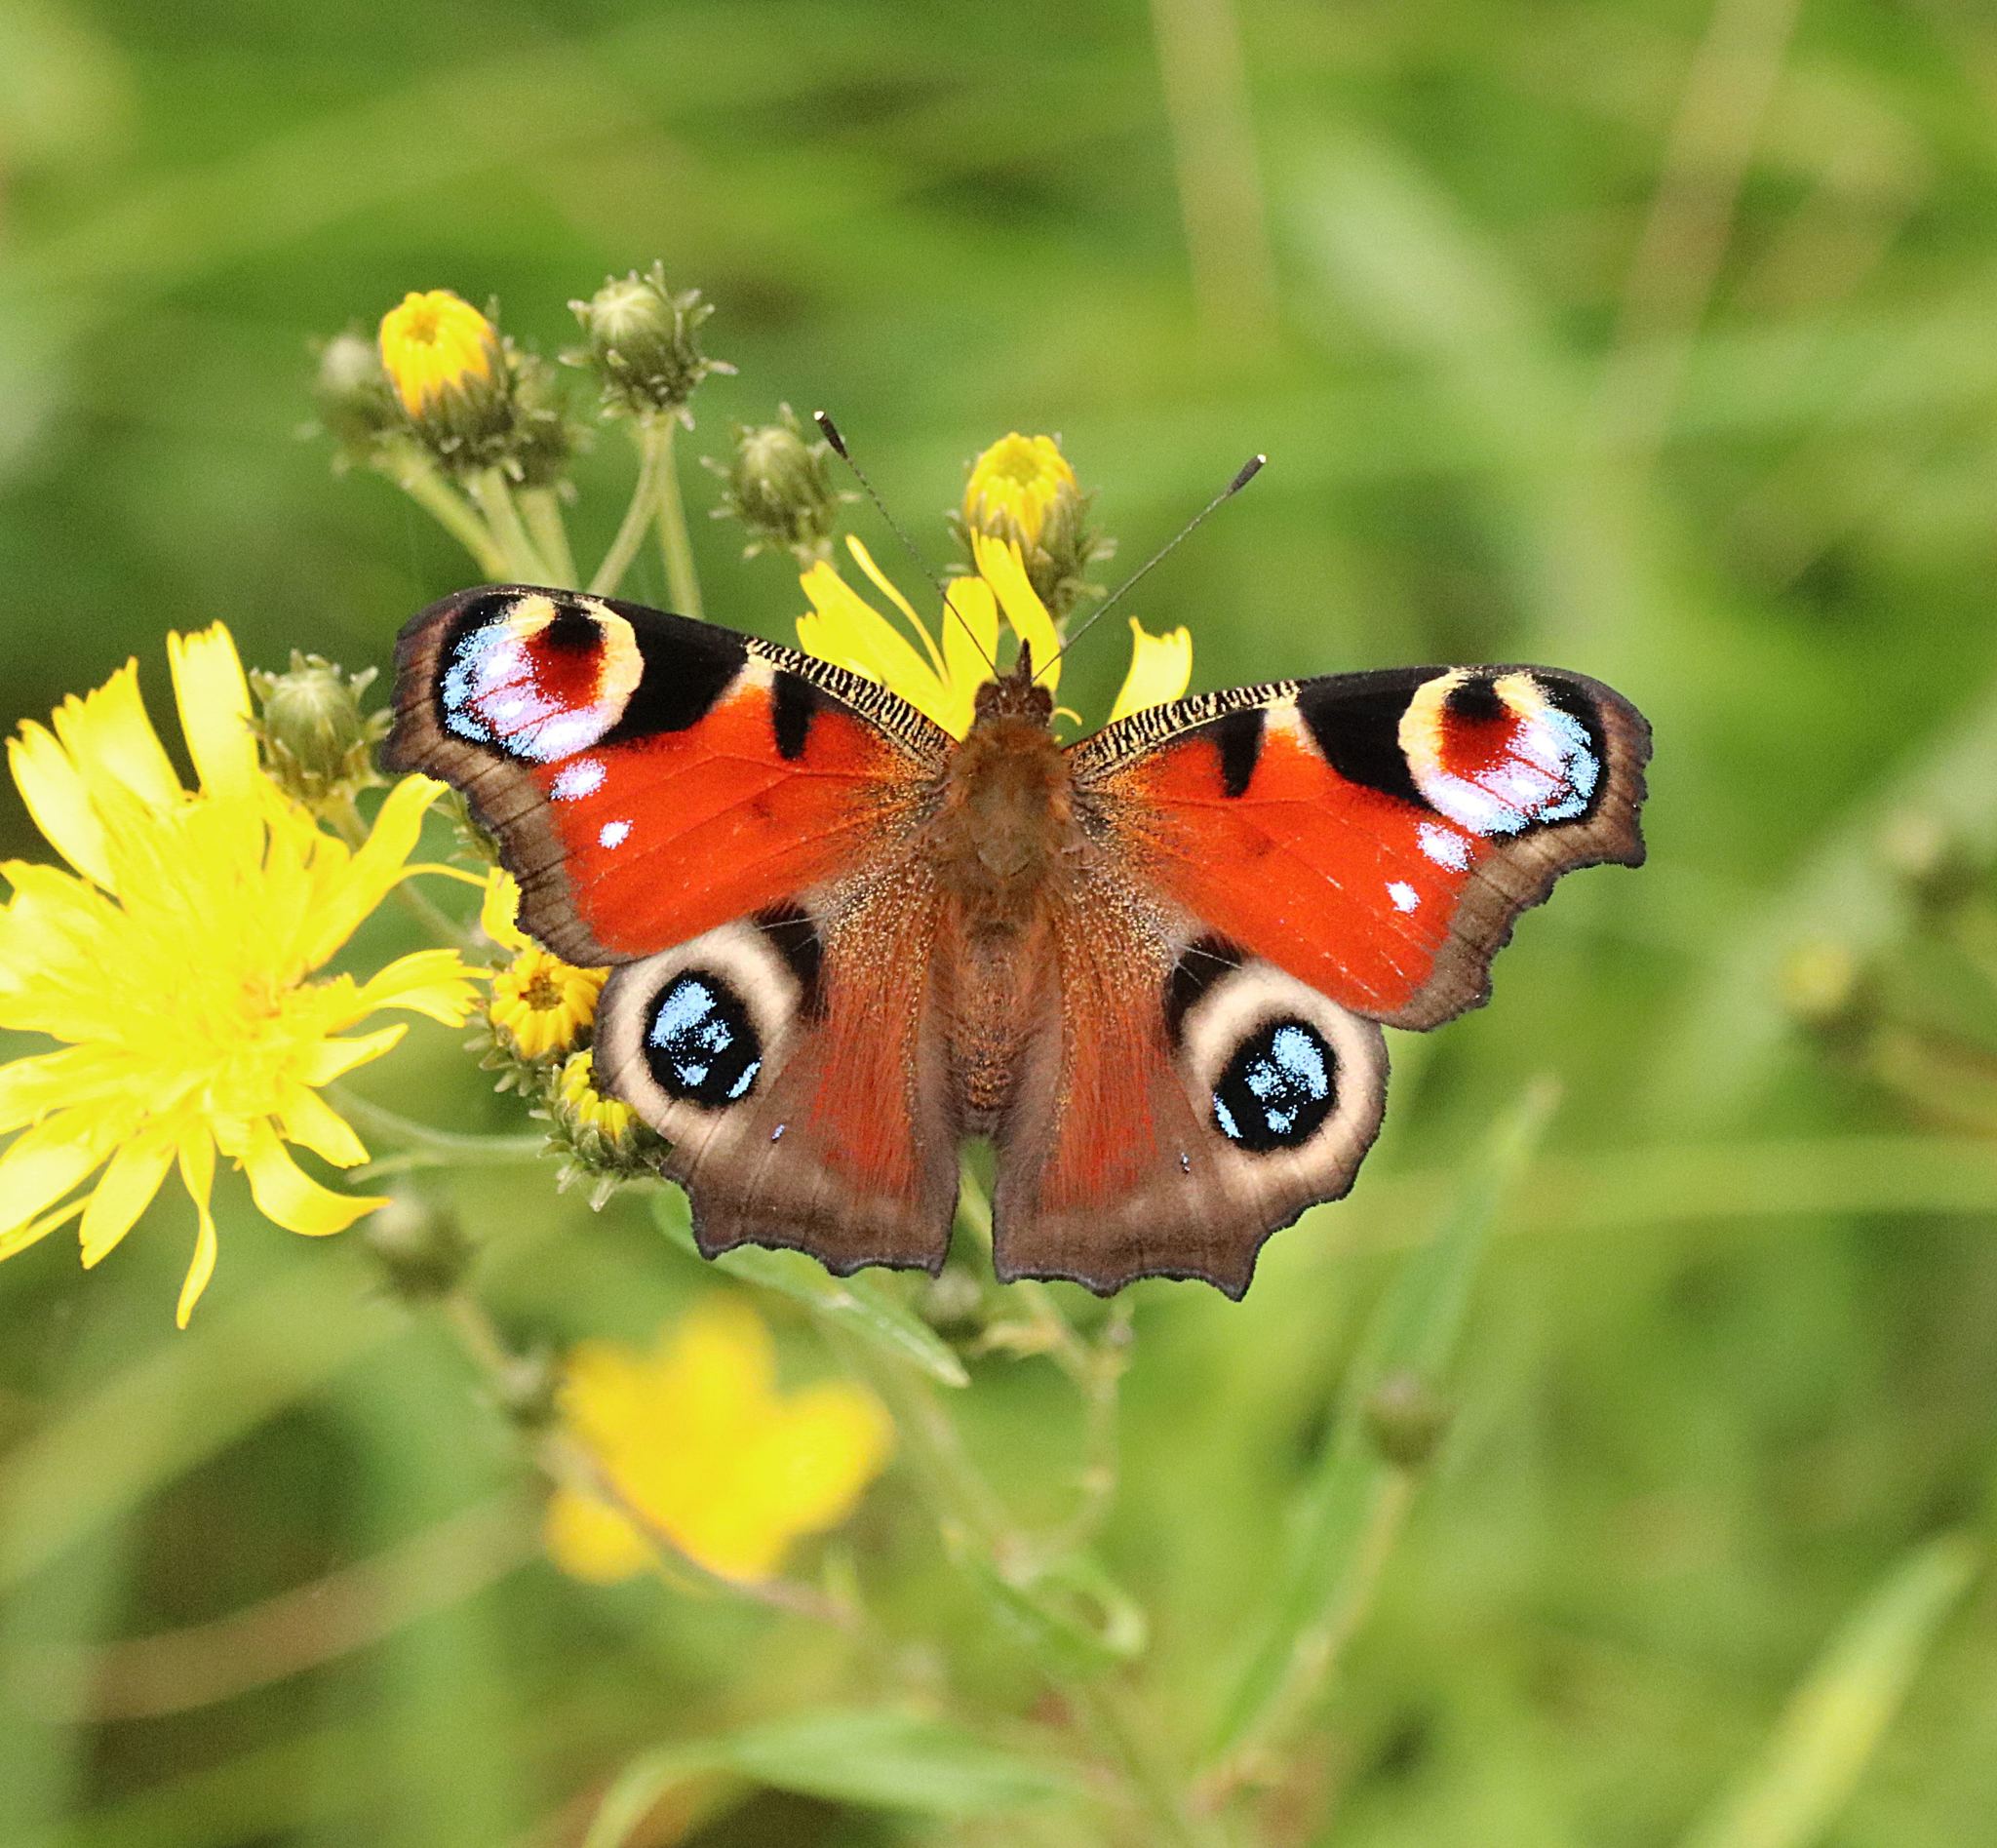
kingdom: Animalia
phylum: Arthropoda
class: Insecta
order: Lepidoptera
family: Nymphalidae
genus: Aglais
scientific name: Aglais io
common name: Peacock
